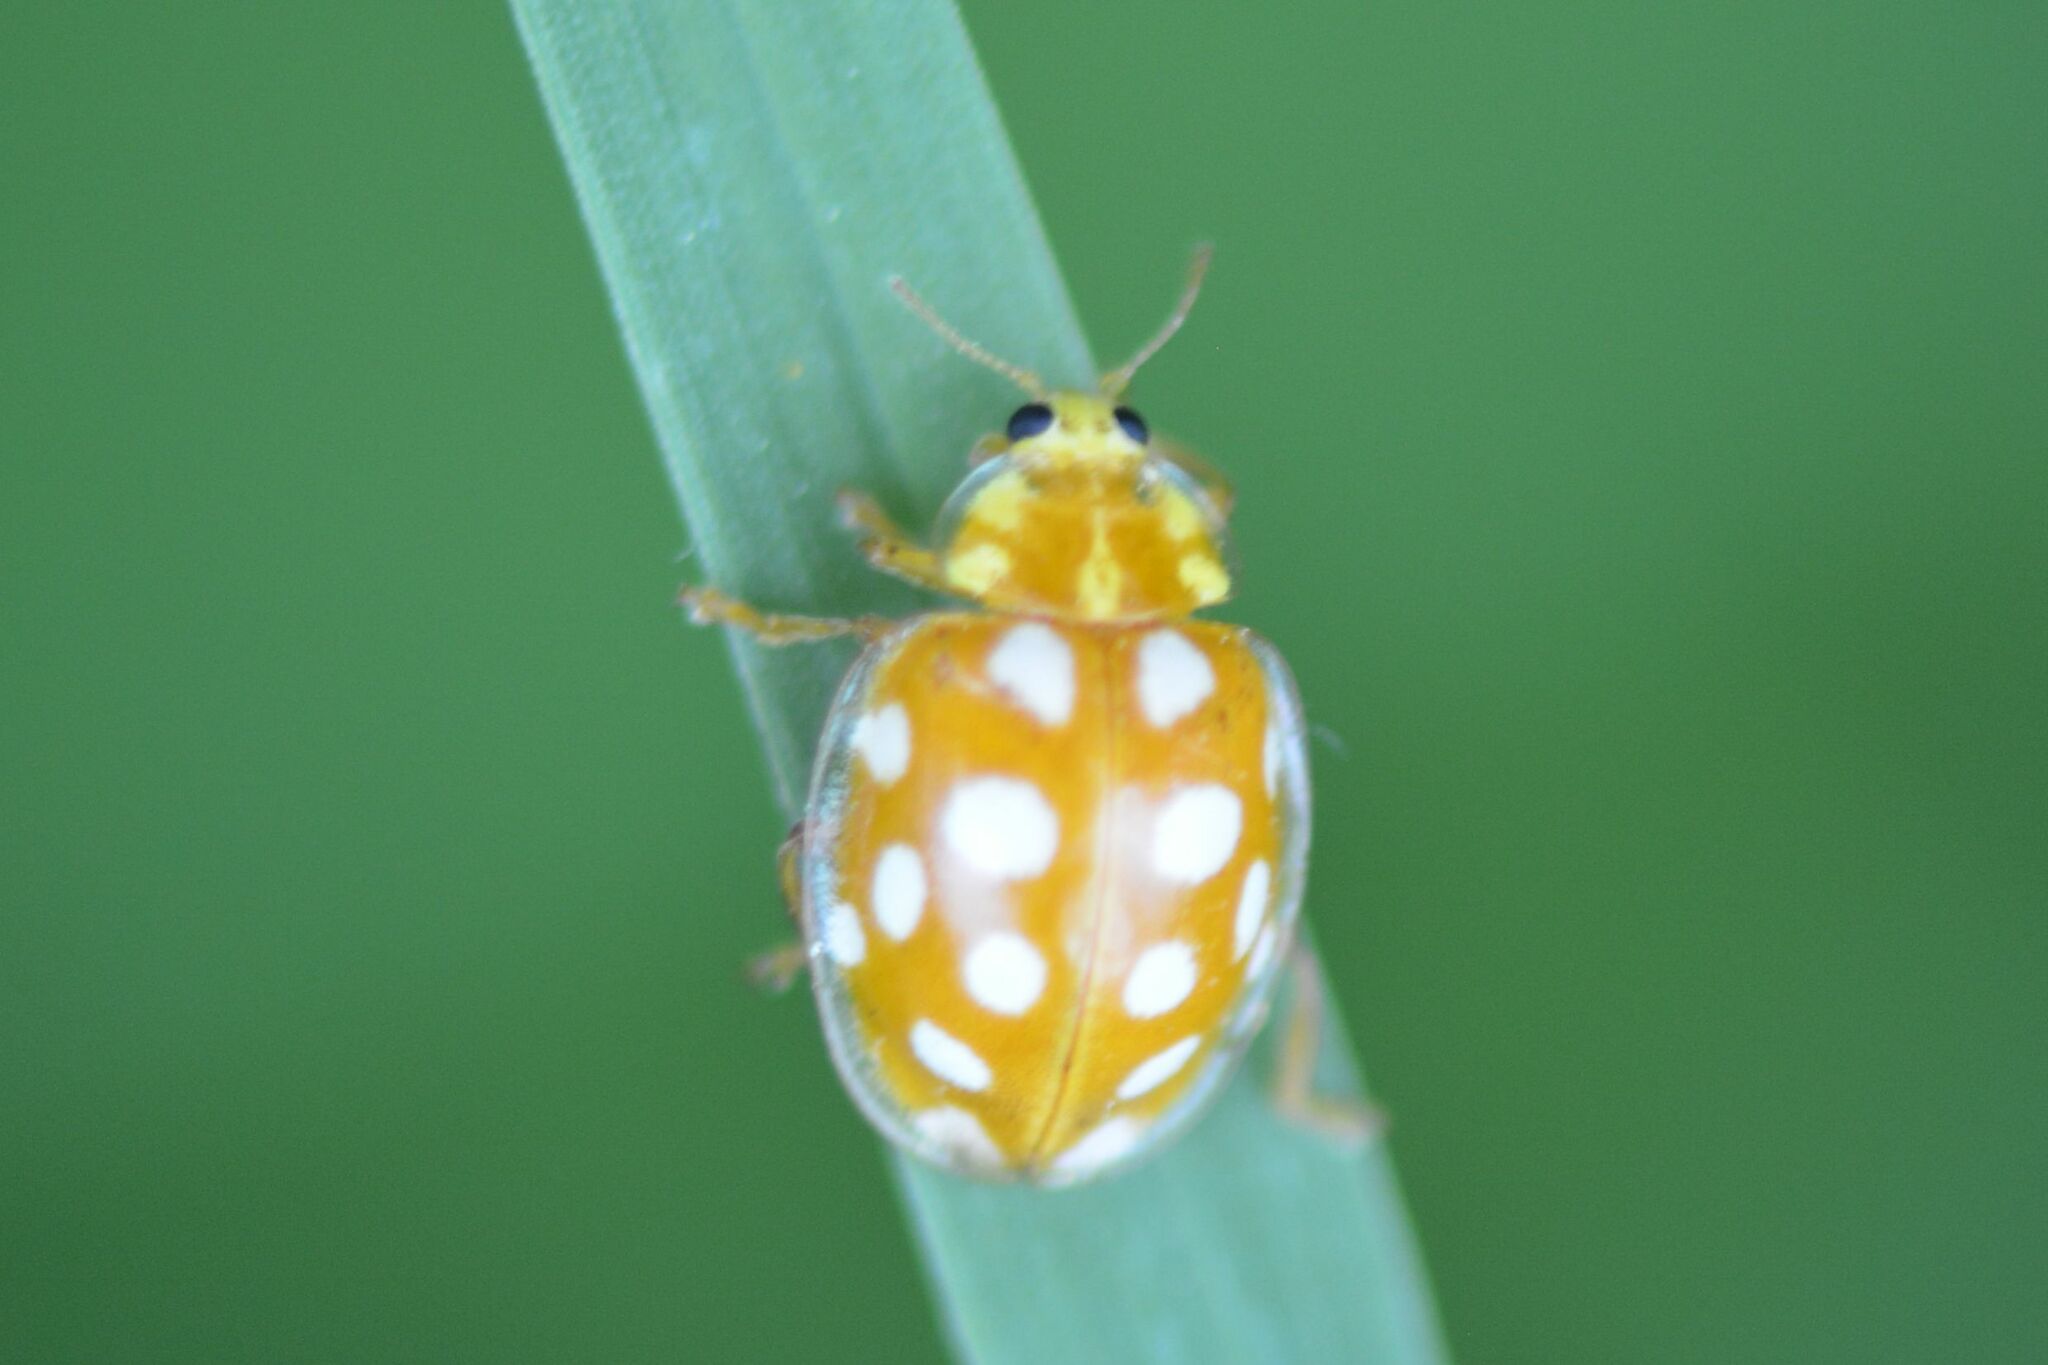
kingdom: Animalia
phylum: Arthropoda
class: Insecta
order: Coleoptera
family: Coccinellidae
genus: Halyzia
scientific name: Halyzia sedecimguttata
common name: Orange ladybird
